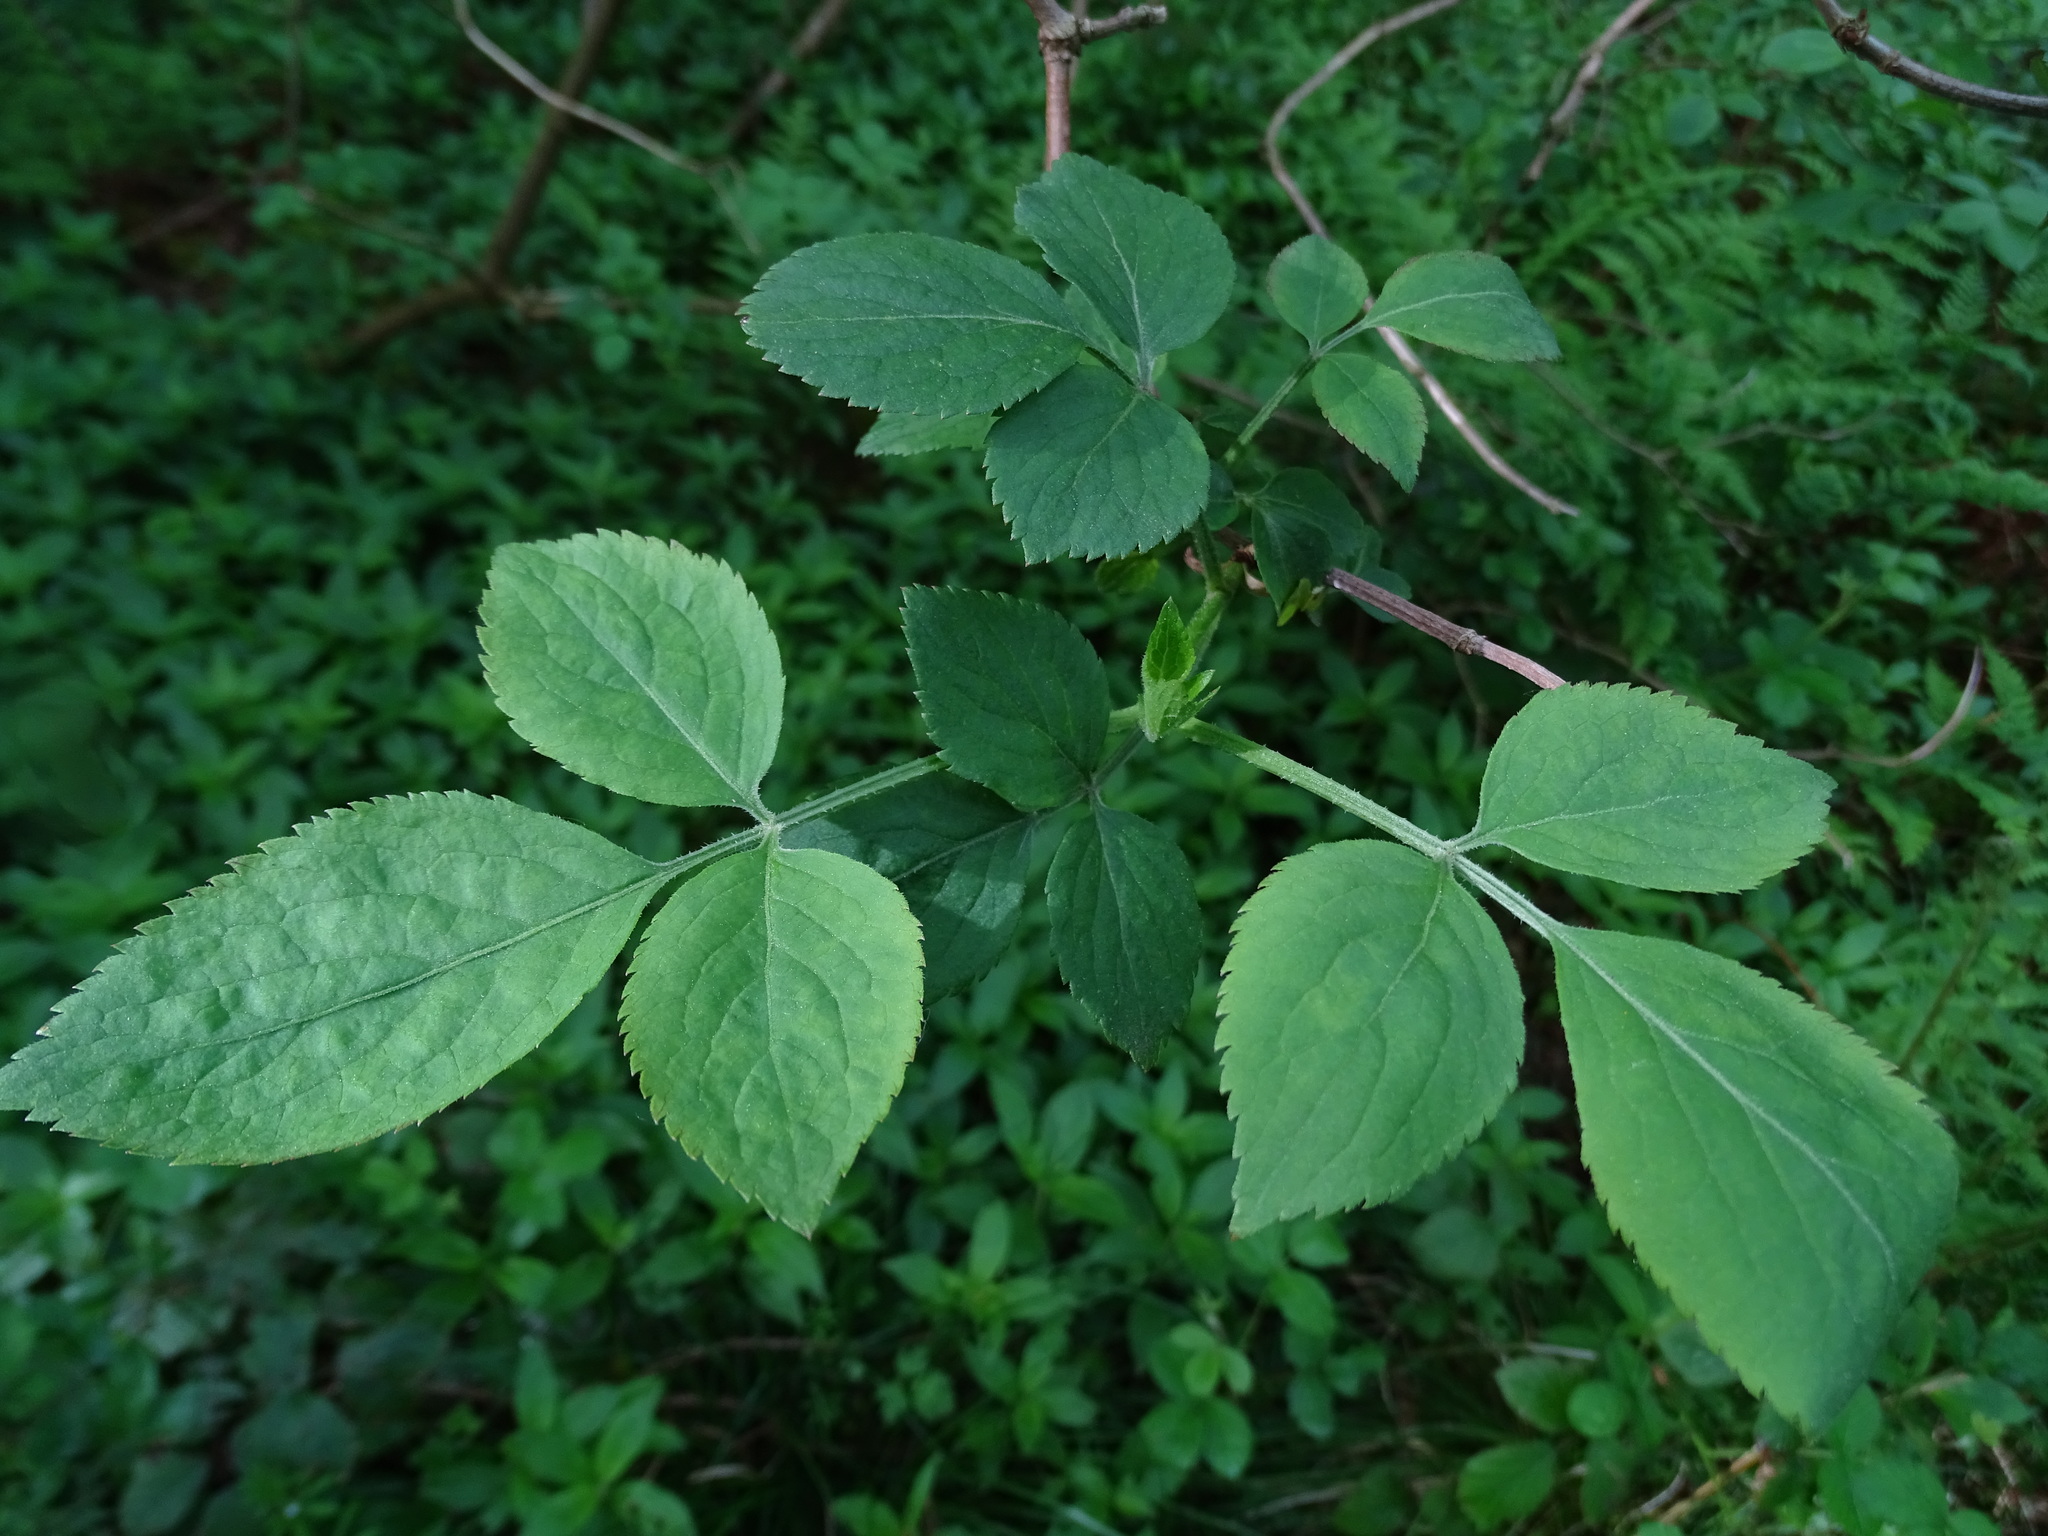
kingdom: Plantae
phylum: Tracheophyta
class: Magnoliopsida
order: Dipsacales
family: Viburnaceae
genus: Sambucus
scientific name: Sambucus nigra
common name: Elder
